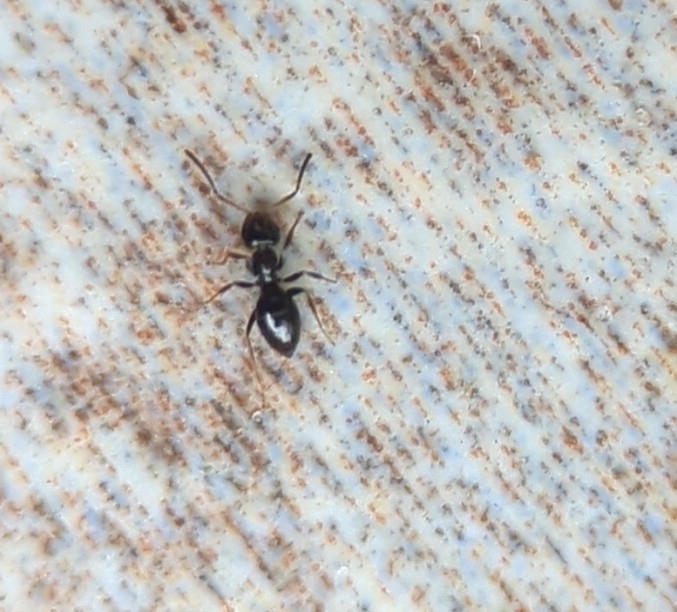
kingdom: Animalia
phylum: Arthropoda
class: Insecta
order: Hymenoptera
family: Formicidae
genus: Brachymyrmex
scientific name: Brachymyrmex patagonicus
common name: Dark rover ant
